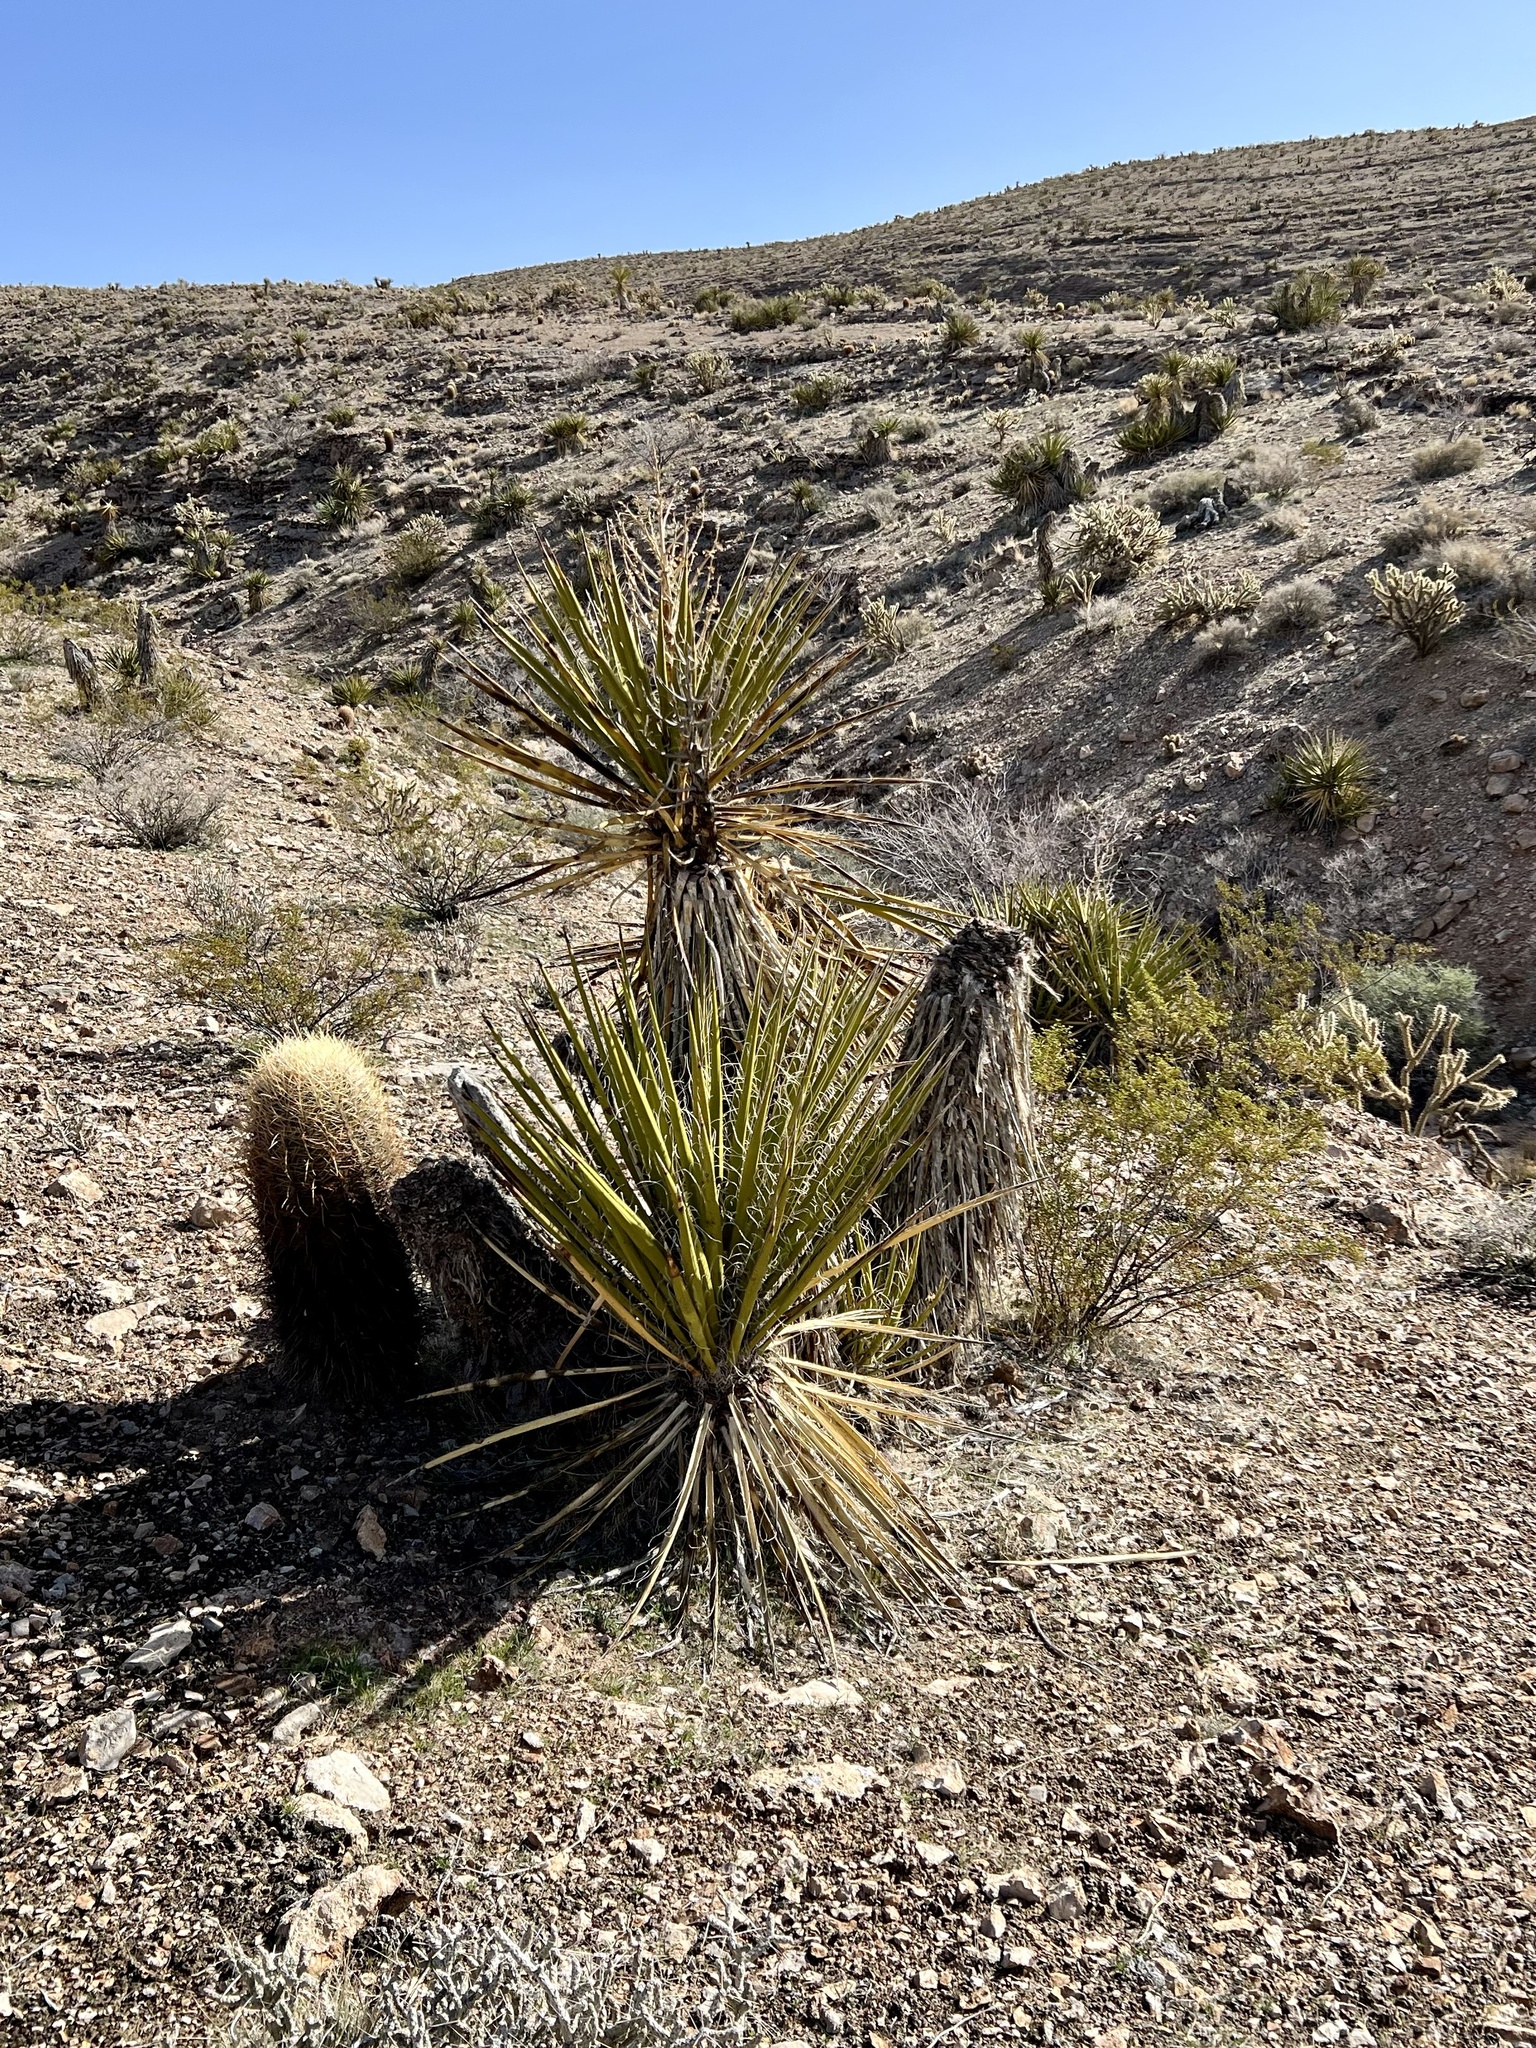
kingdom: Plantae
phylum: Tracheophyta
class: Liliopsida
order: Asparagales
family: Asparagaceae
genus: Yucca
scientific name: Yucca schidigera
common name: Mojave yucca
